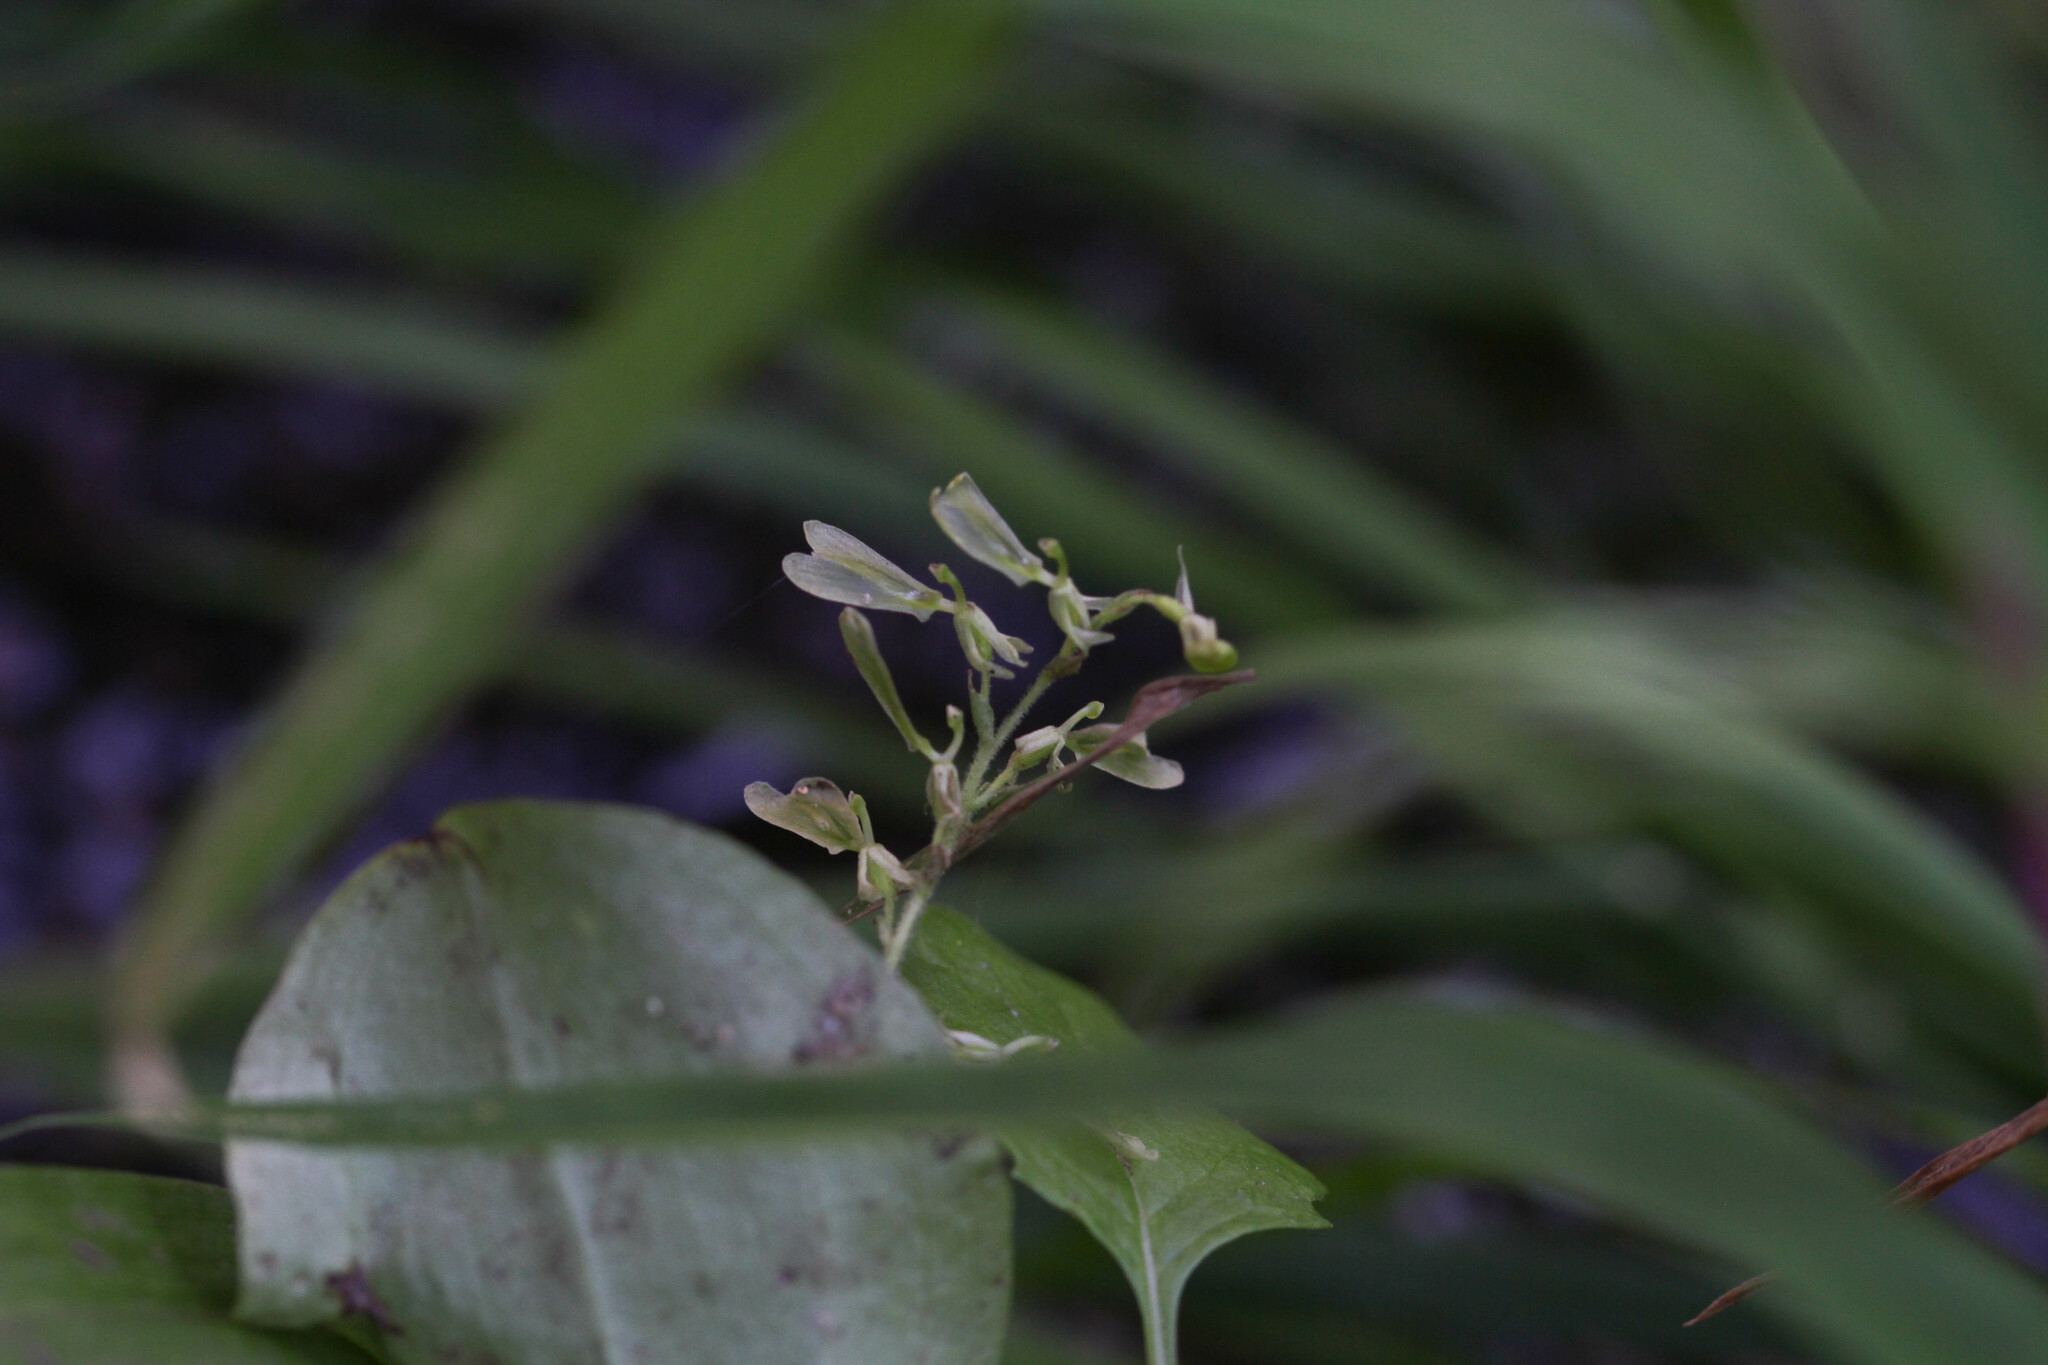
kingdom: Plantae
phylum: Tracheophyta
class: Liliopsida
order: Asparagales
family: Orchidaceae
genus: Neottia
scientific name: Neottia convallarioides
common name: Broadleaf twayblade
